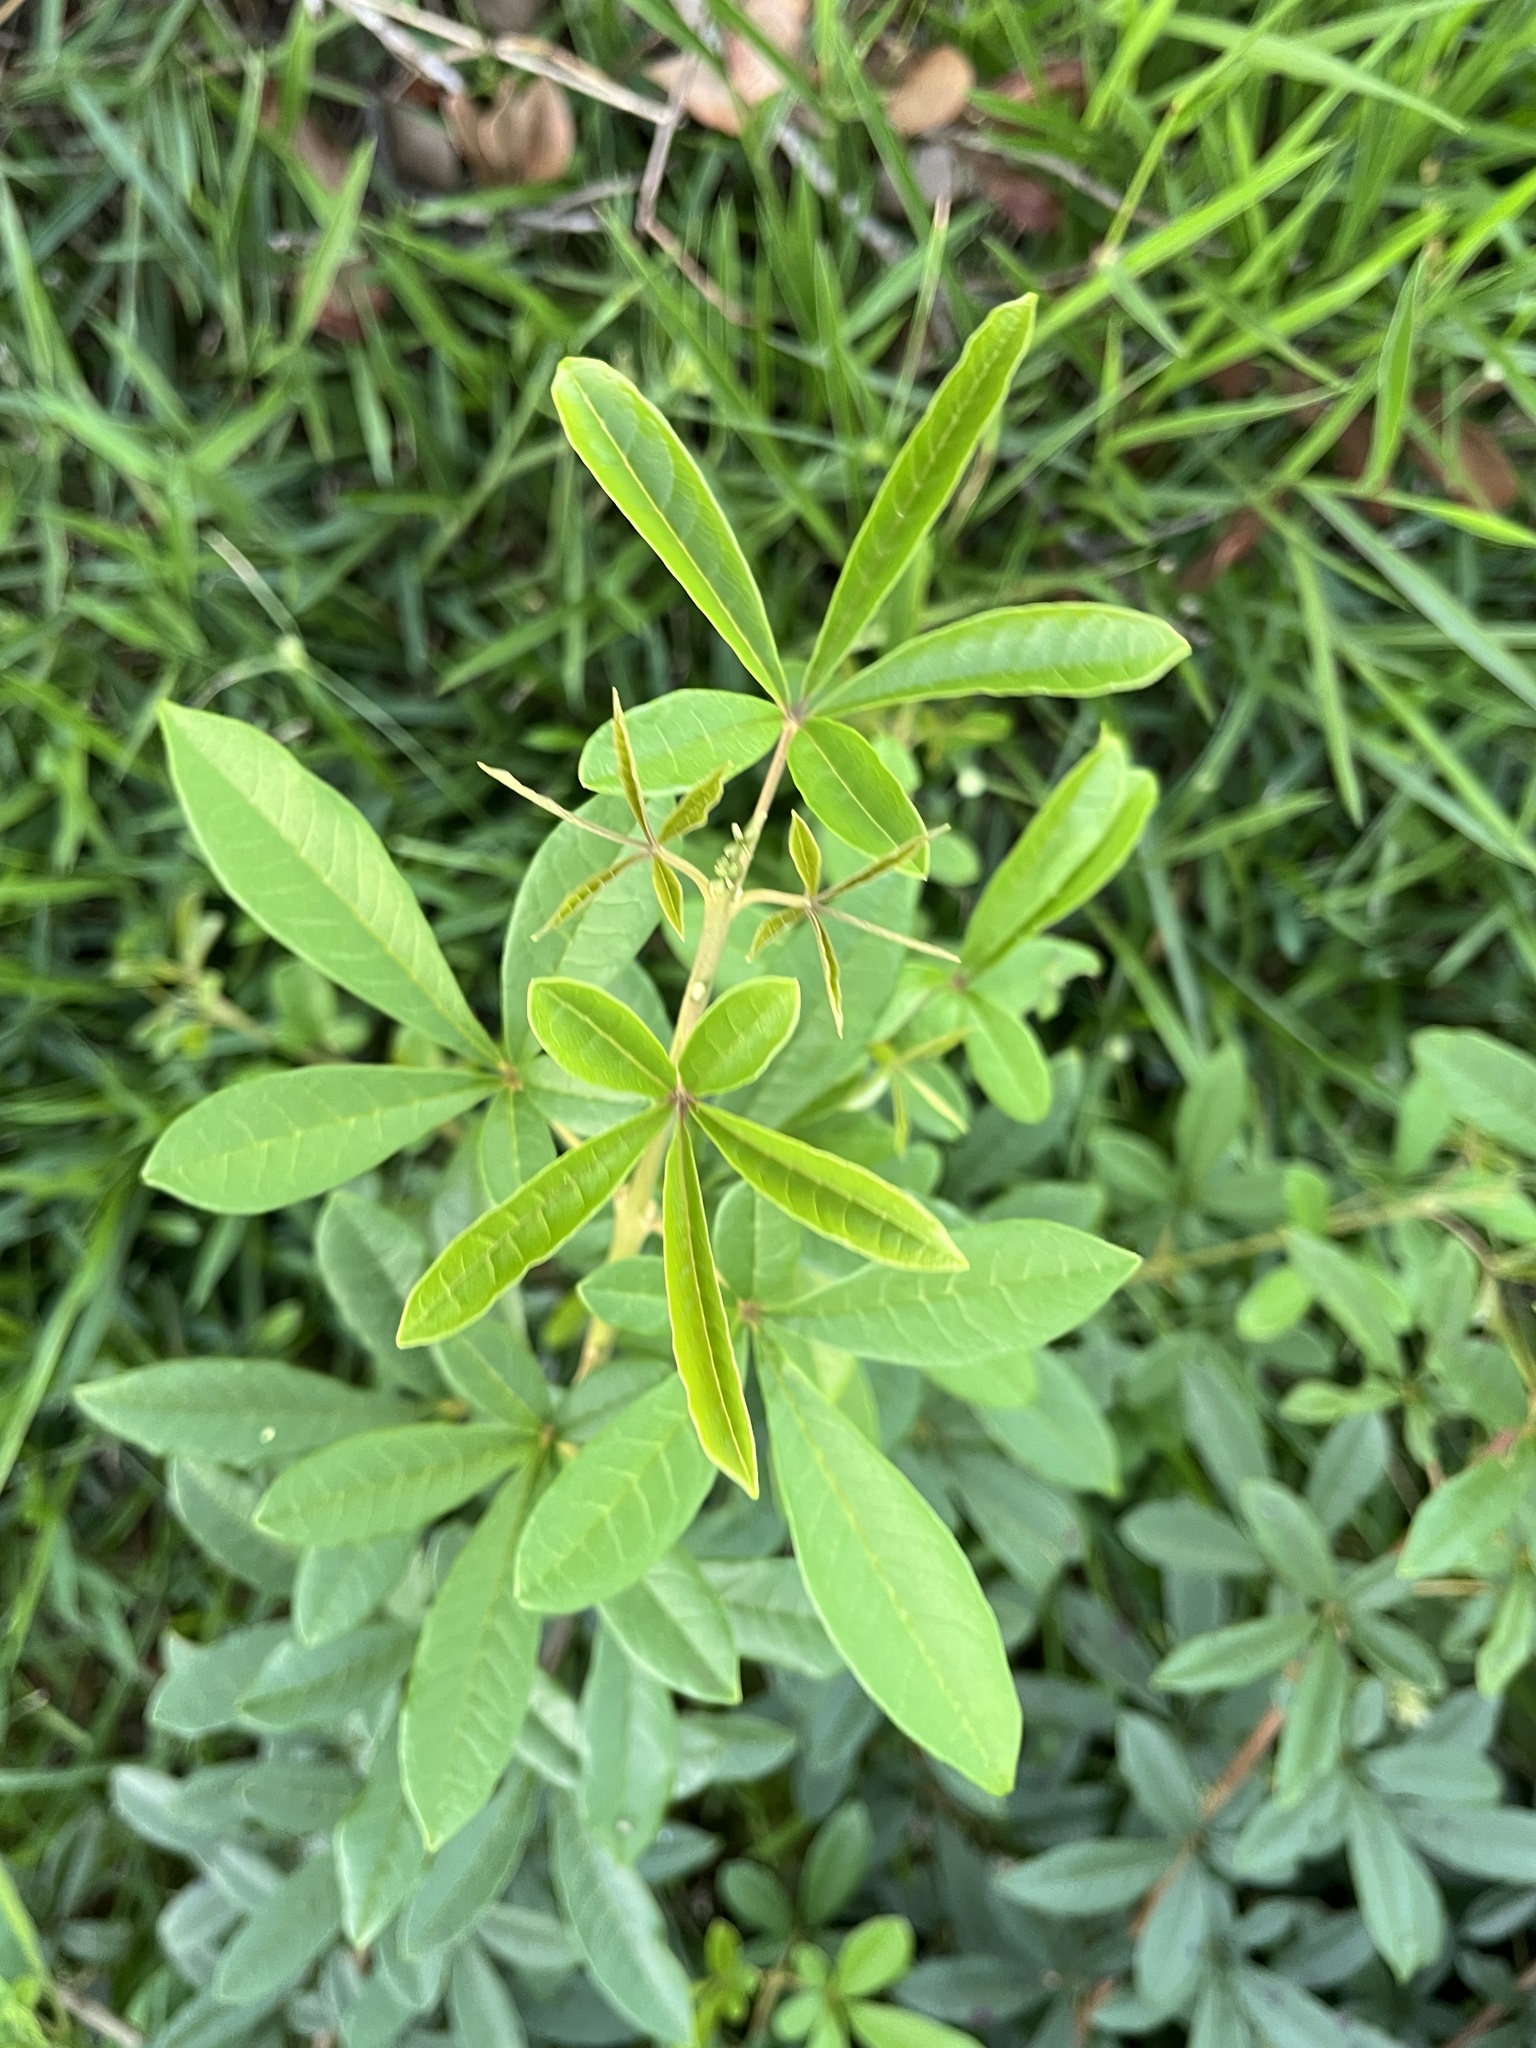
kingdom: Plantae
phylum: Tracheophyta
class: Magnoliopsida
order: Lamiales
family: Lamiaceae
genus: Vitex
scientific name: Vitex megapotamica
